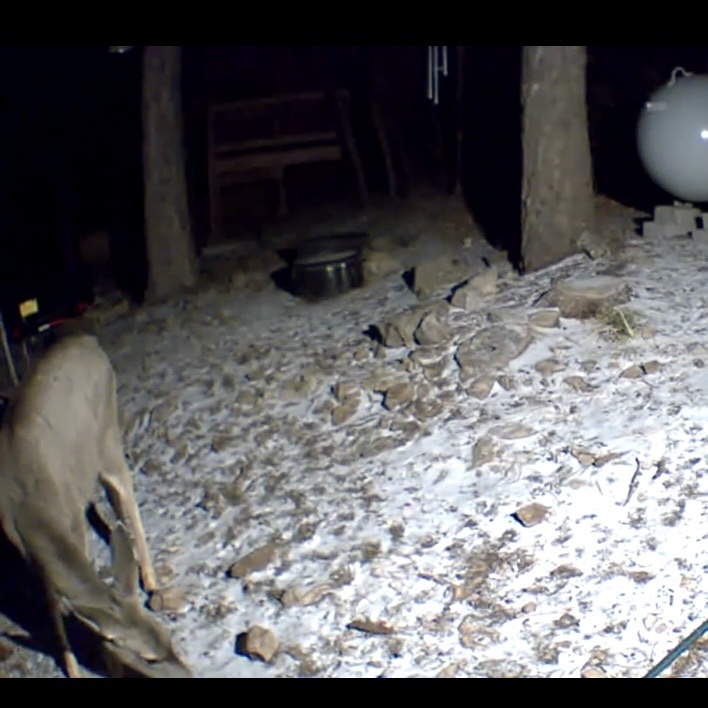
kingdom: Animalia
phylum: Chordata
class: Mammalia
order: Artiodactyla
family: Cervidae
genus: Odocoileus
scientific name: Odocoileus hemionus
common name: Mule deer
